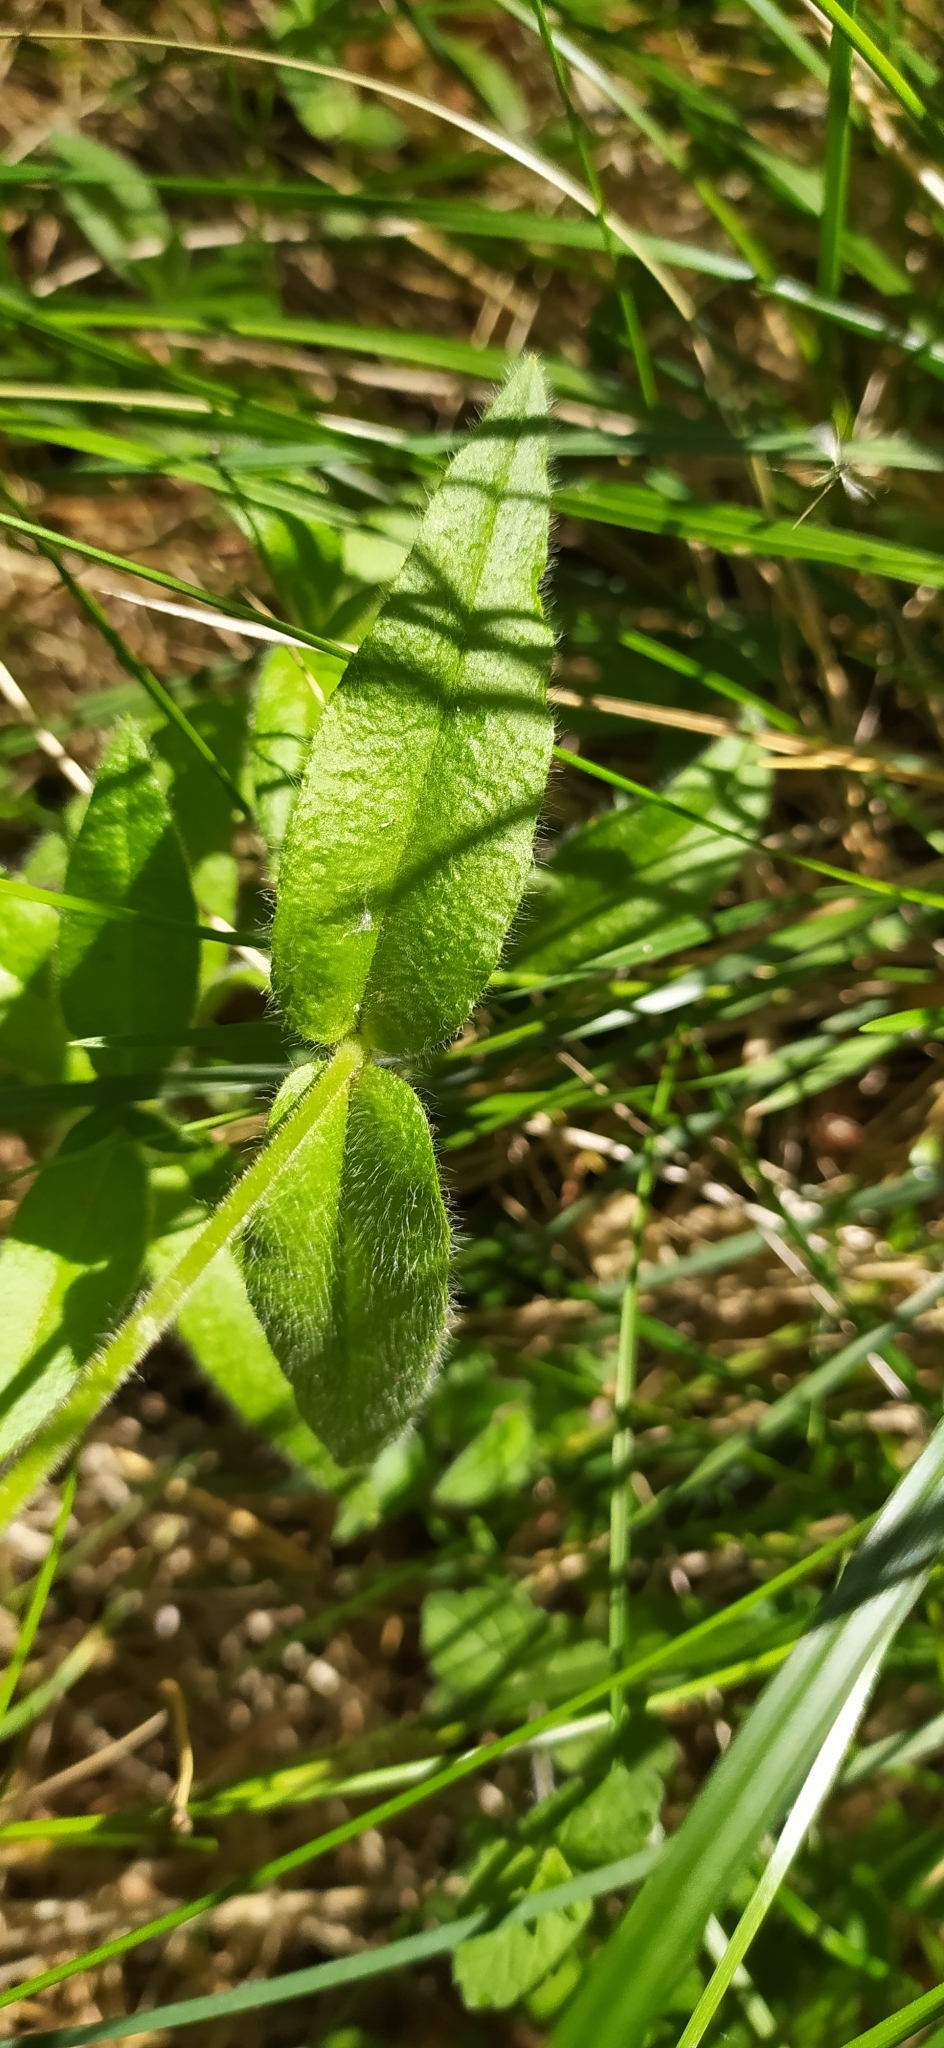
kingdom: Plantae
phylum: Tracheophyta
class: Magnoliopsida
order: Caryophyllales
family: Caryophyllaceae
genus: Cerastium
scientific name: Cerastium pauciflorum
